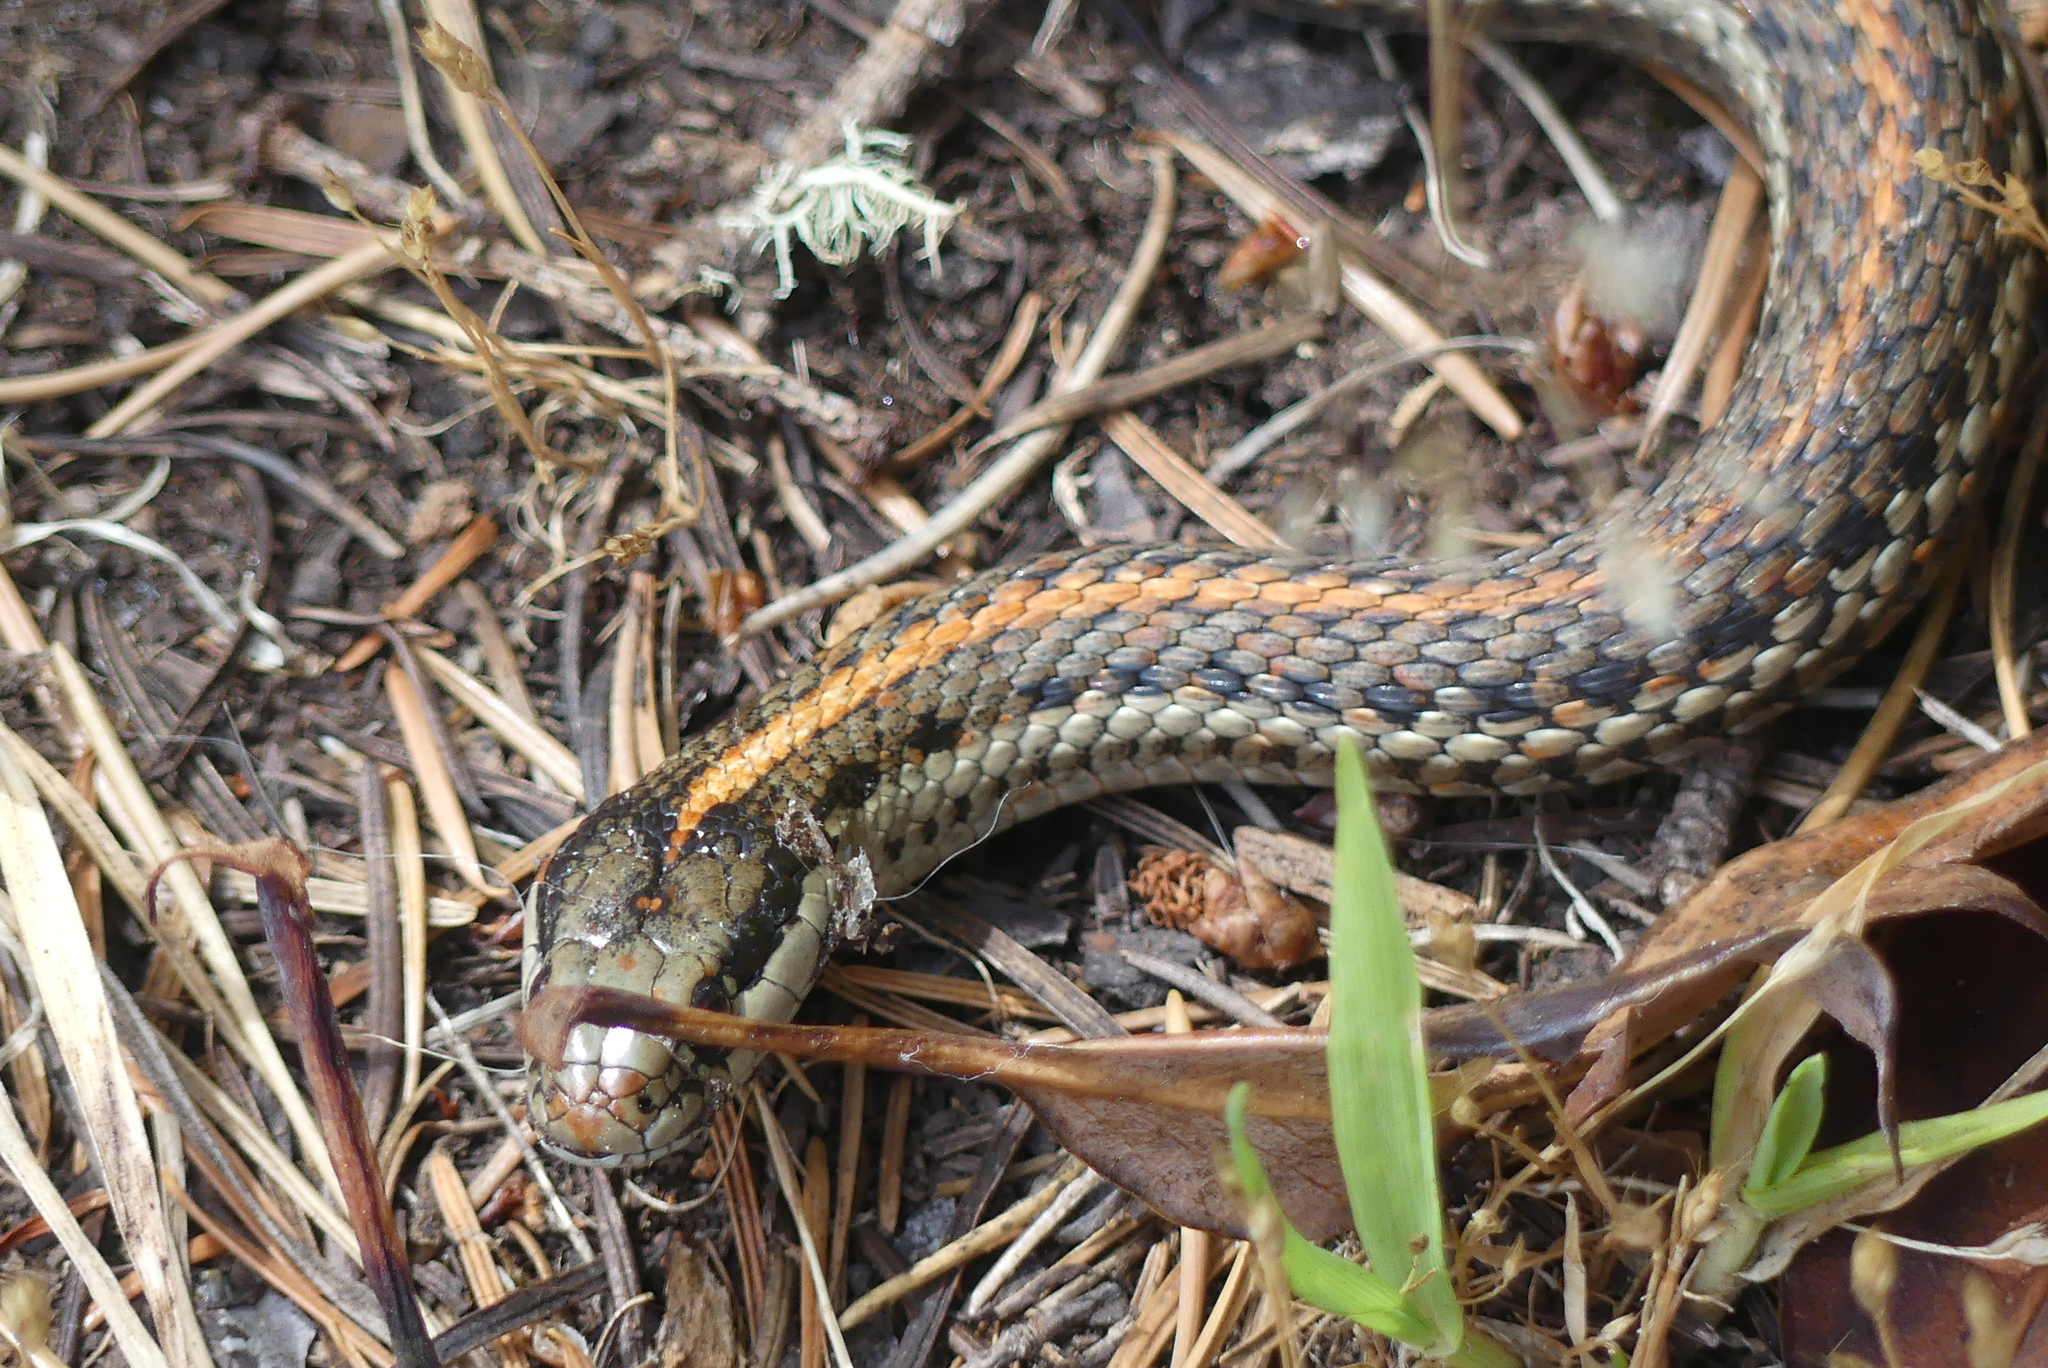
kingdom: Animalia
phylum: Chordata
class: Squamata
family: Colubridae
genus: Thamnophis
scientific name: Thamnophis ordinoides
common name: Northwestern garter snake
